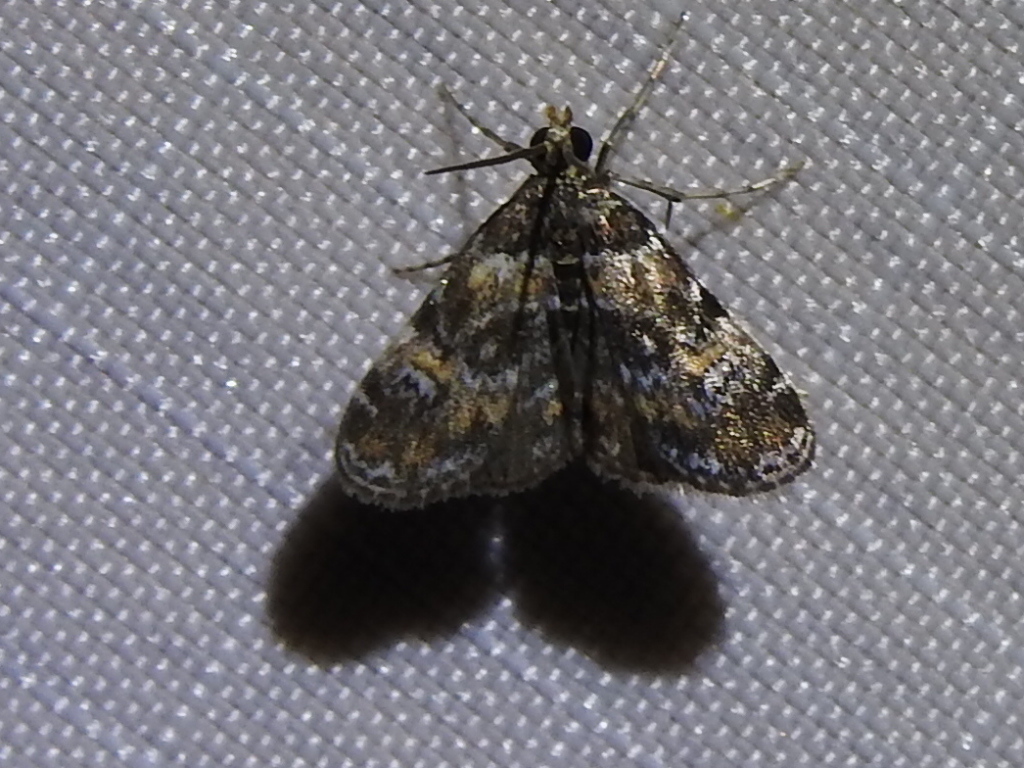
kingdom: Animalia
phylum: Arthropoda
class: Insecta
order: Lepidoptera
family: Crambidae
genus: Elophila
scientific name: Elophila obliteralis
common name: Waterlily leafcutter moth
